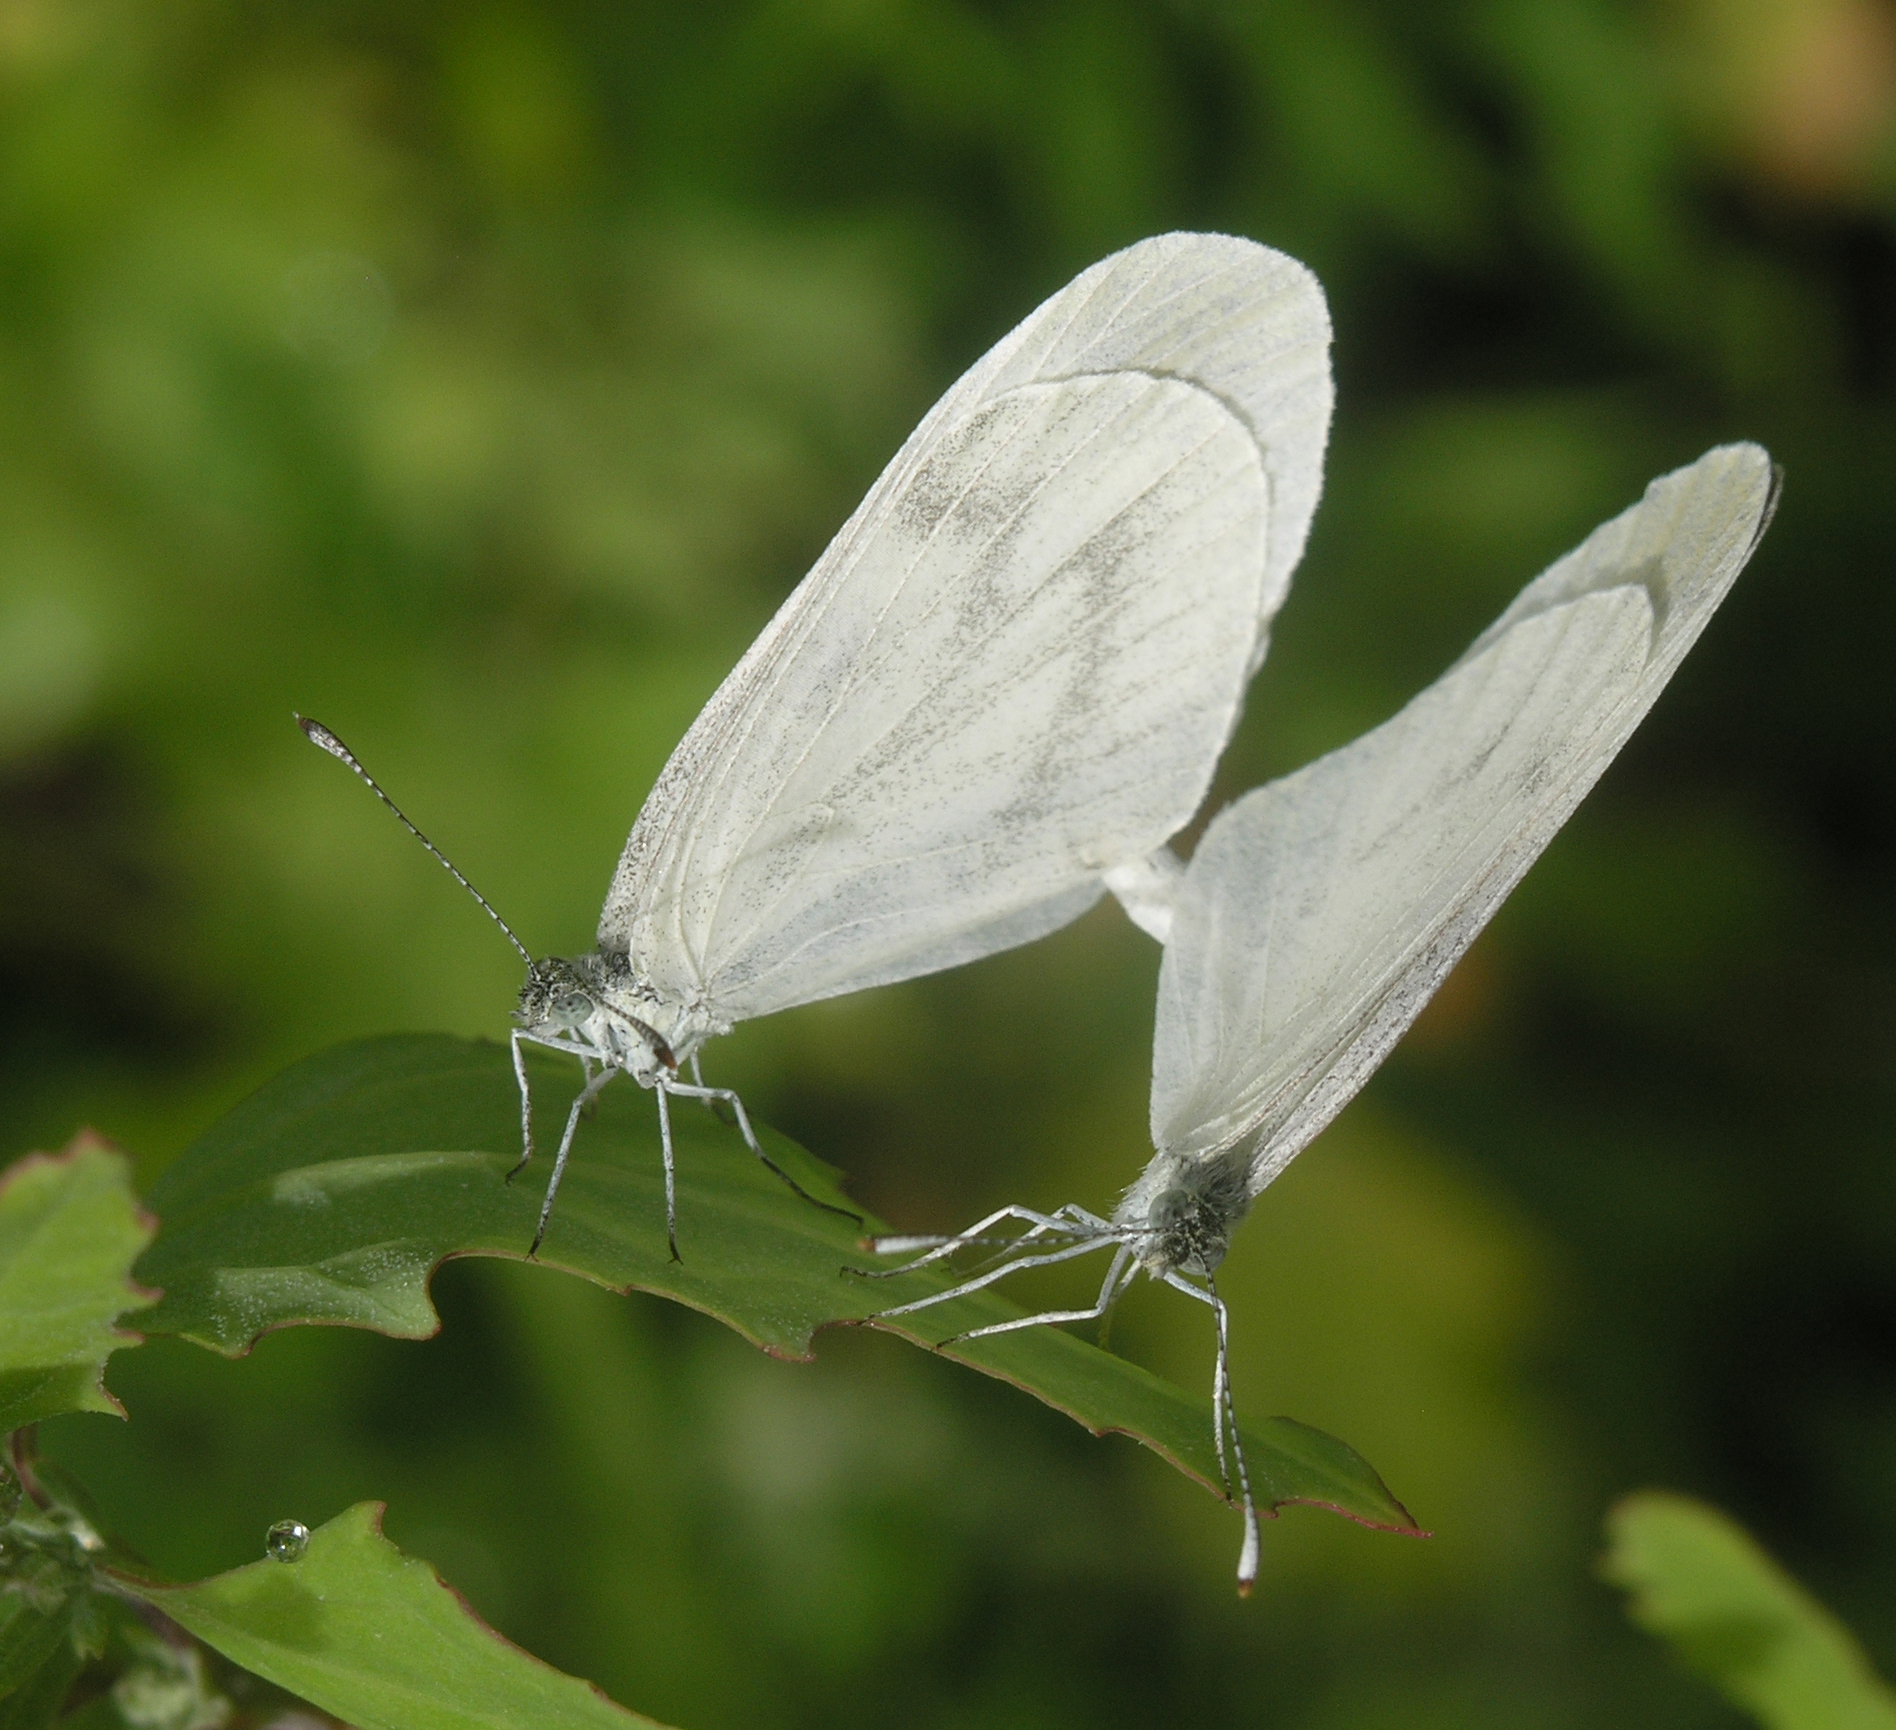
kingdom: Animalia
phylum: Arthropoda
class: Insecta
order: Lepidoptera
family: Pieridae
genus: Leptidea
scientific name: Leptidea morsei
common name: Fenton's wood white
